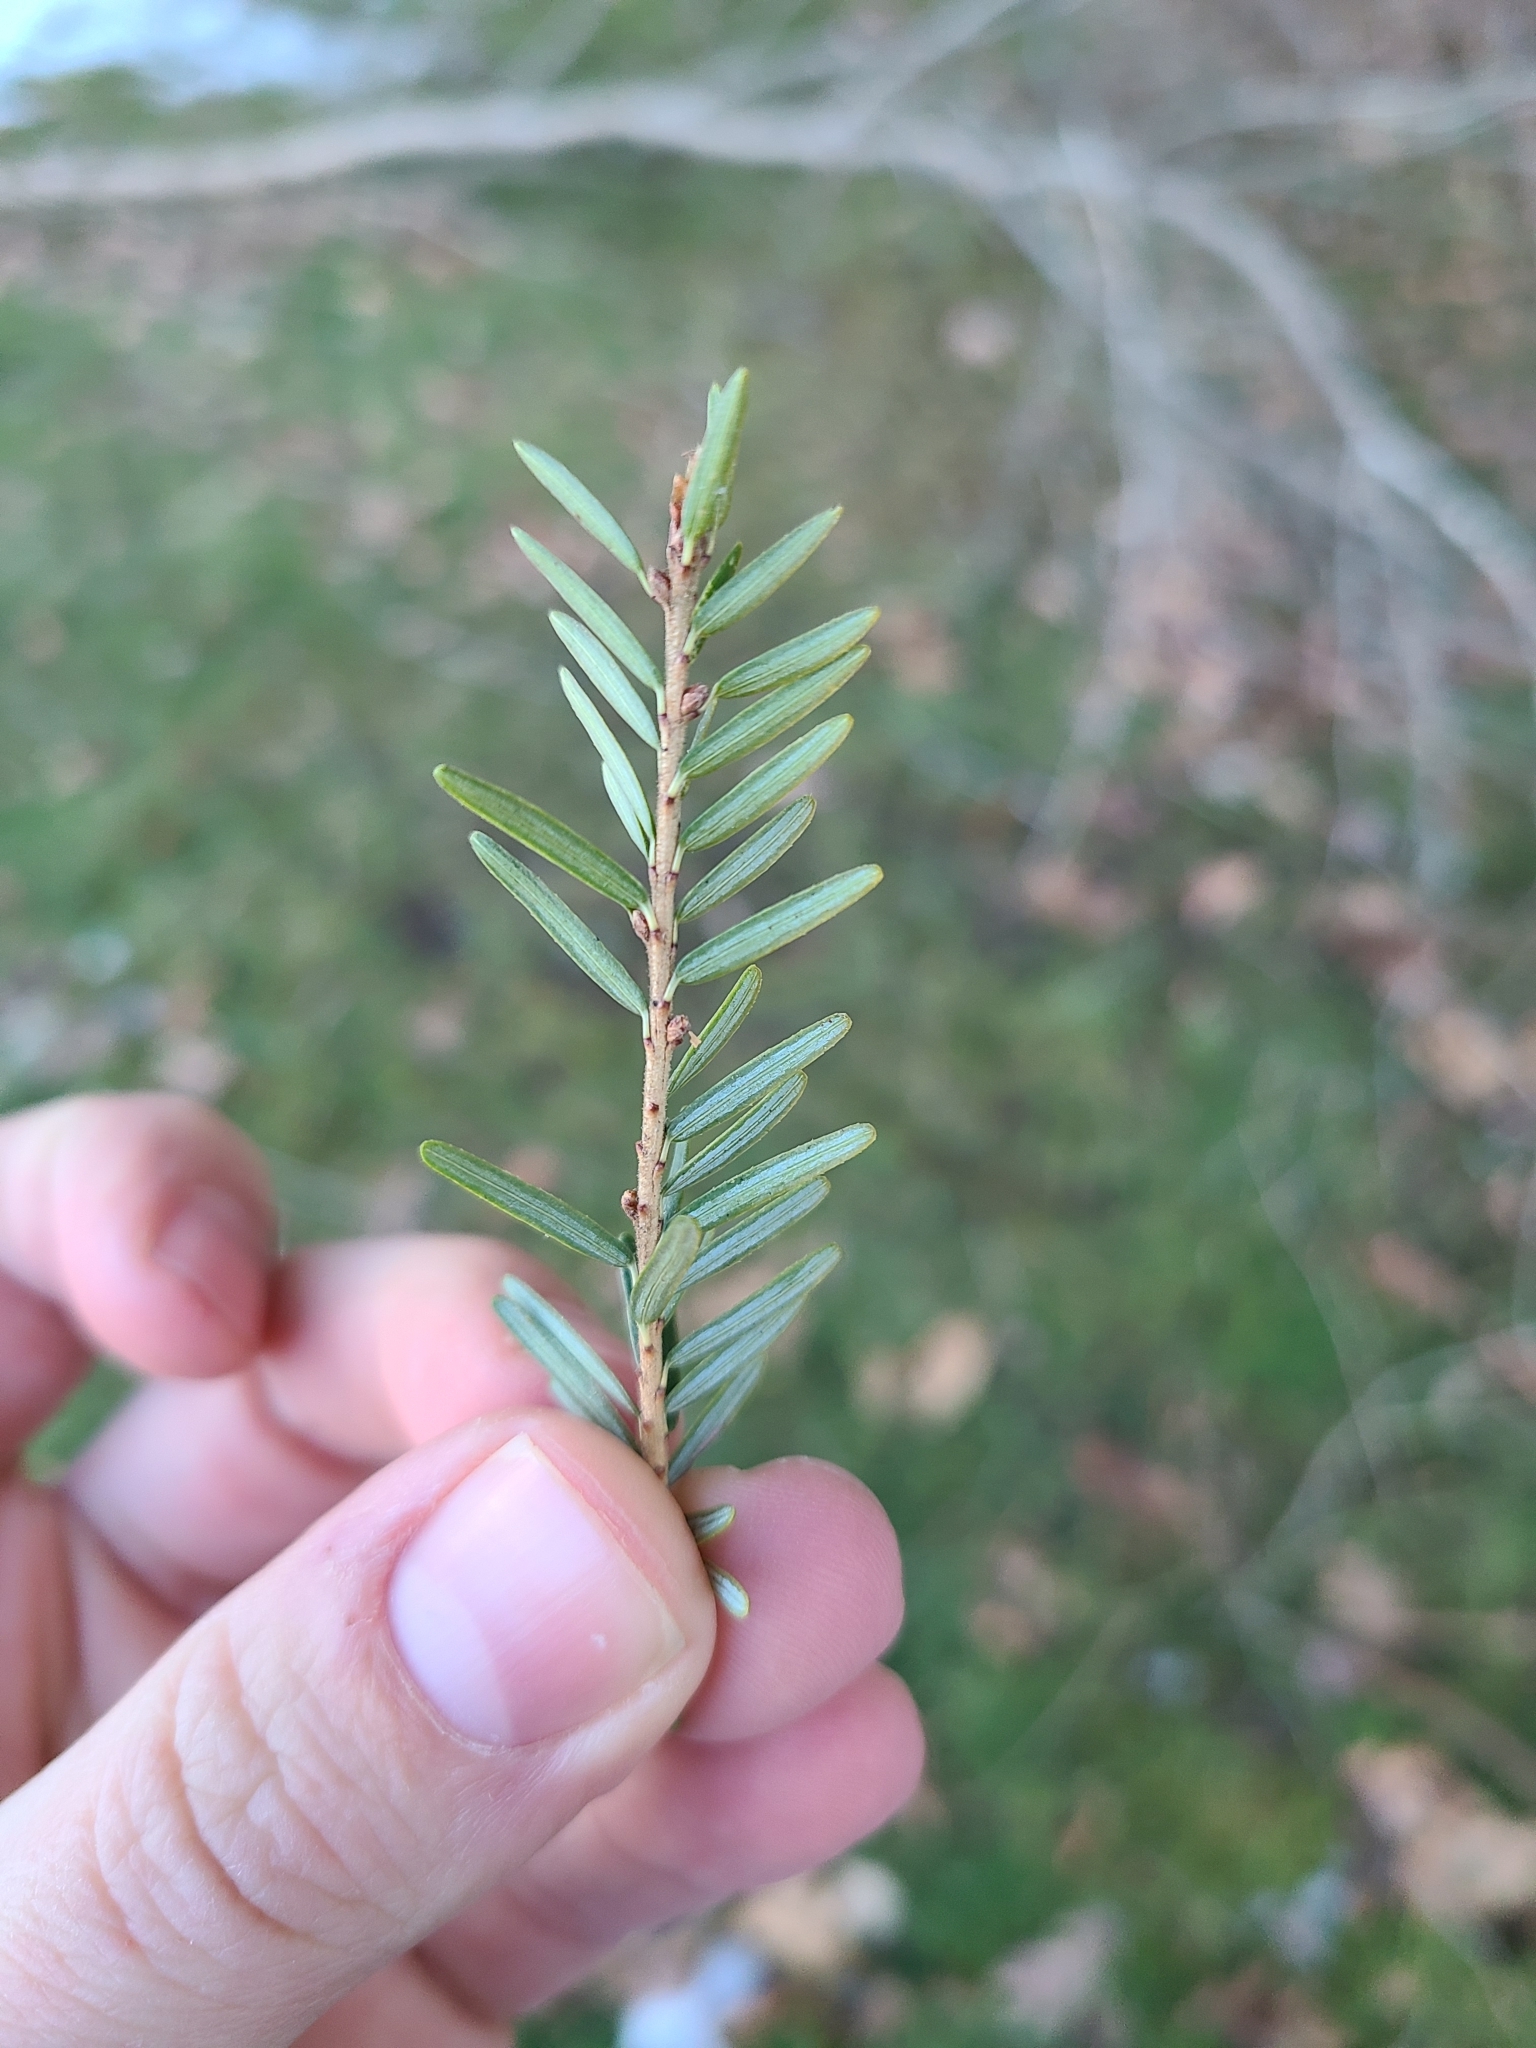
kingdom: Plantae
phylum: Tracheophyta
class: Pinopsida
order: Pinales
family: Pinaceae
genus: Tsuga
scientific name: Tsuga canadensis
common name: Eastern hemlock
